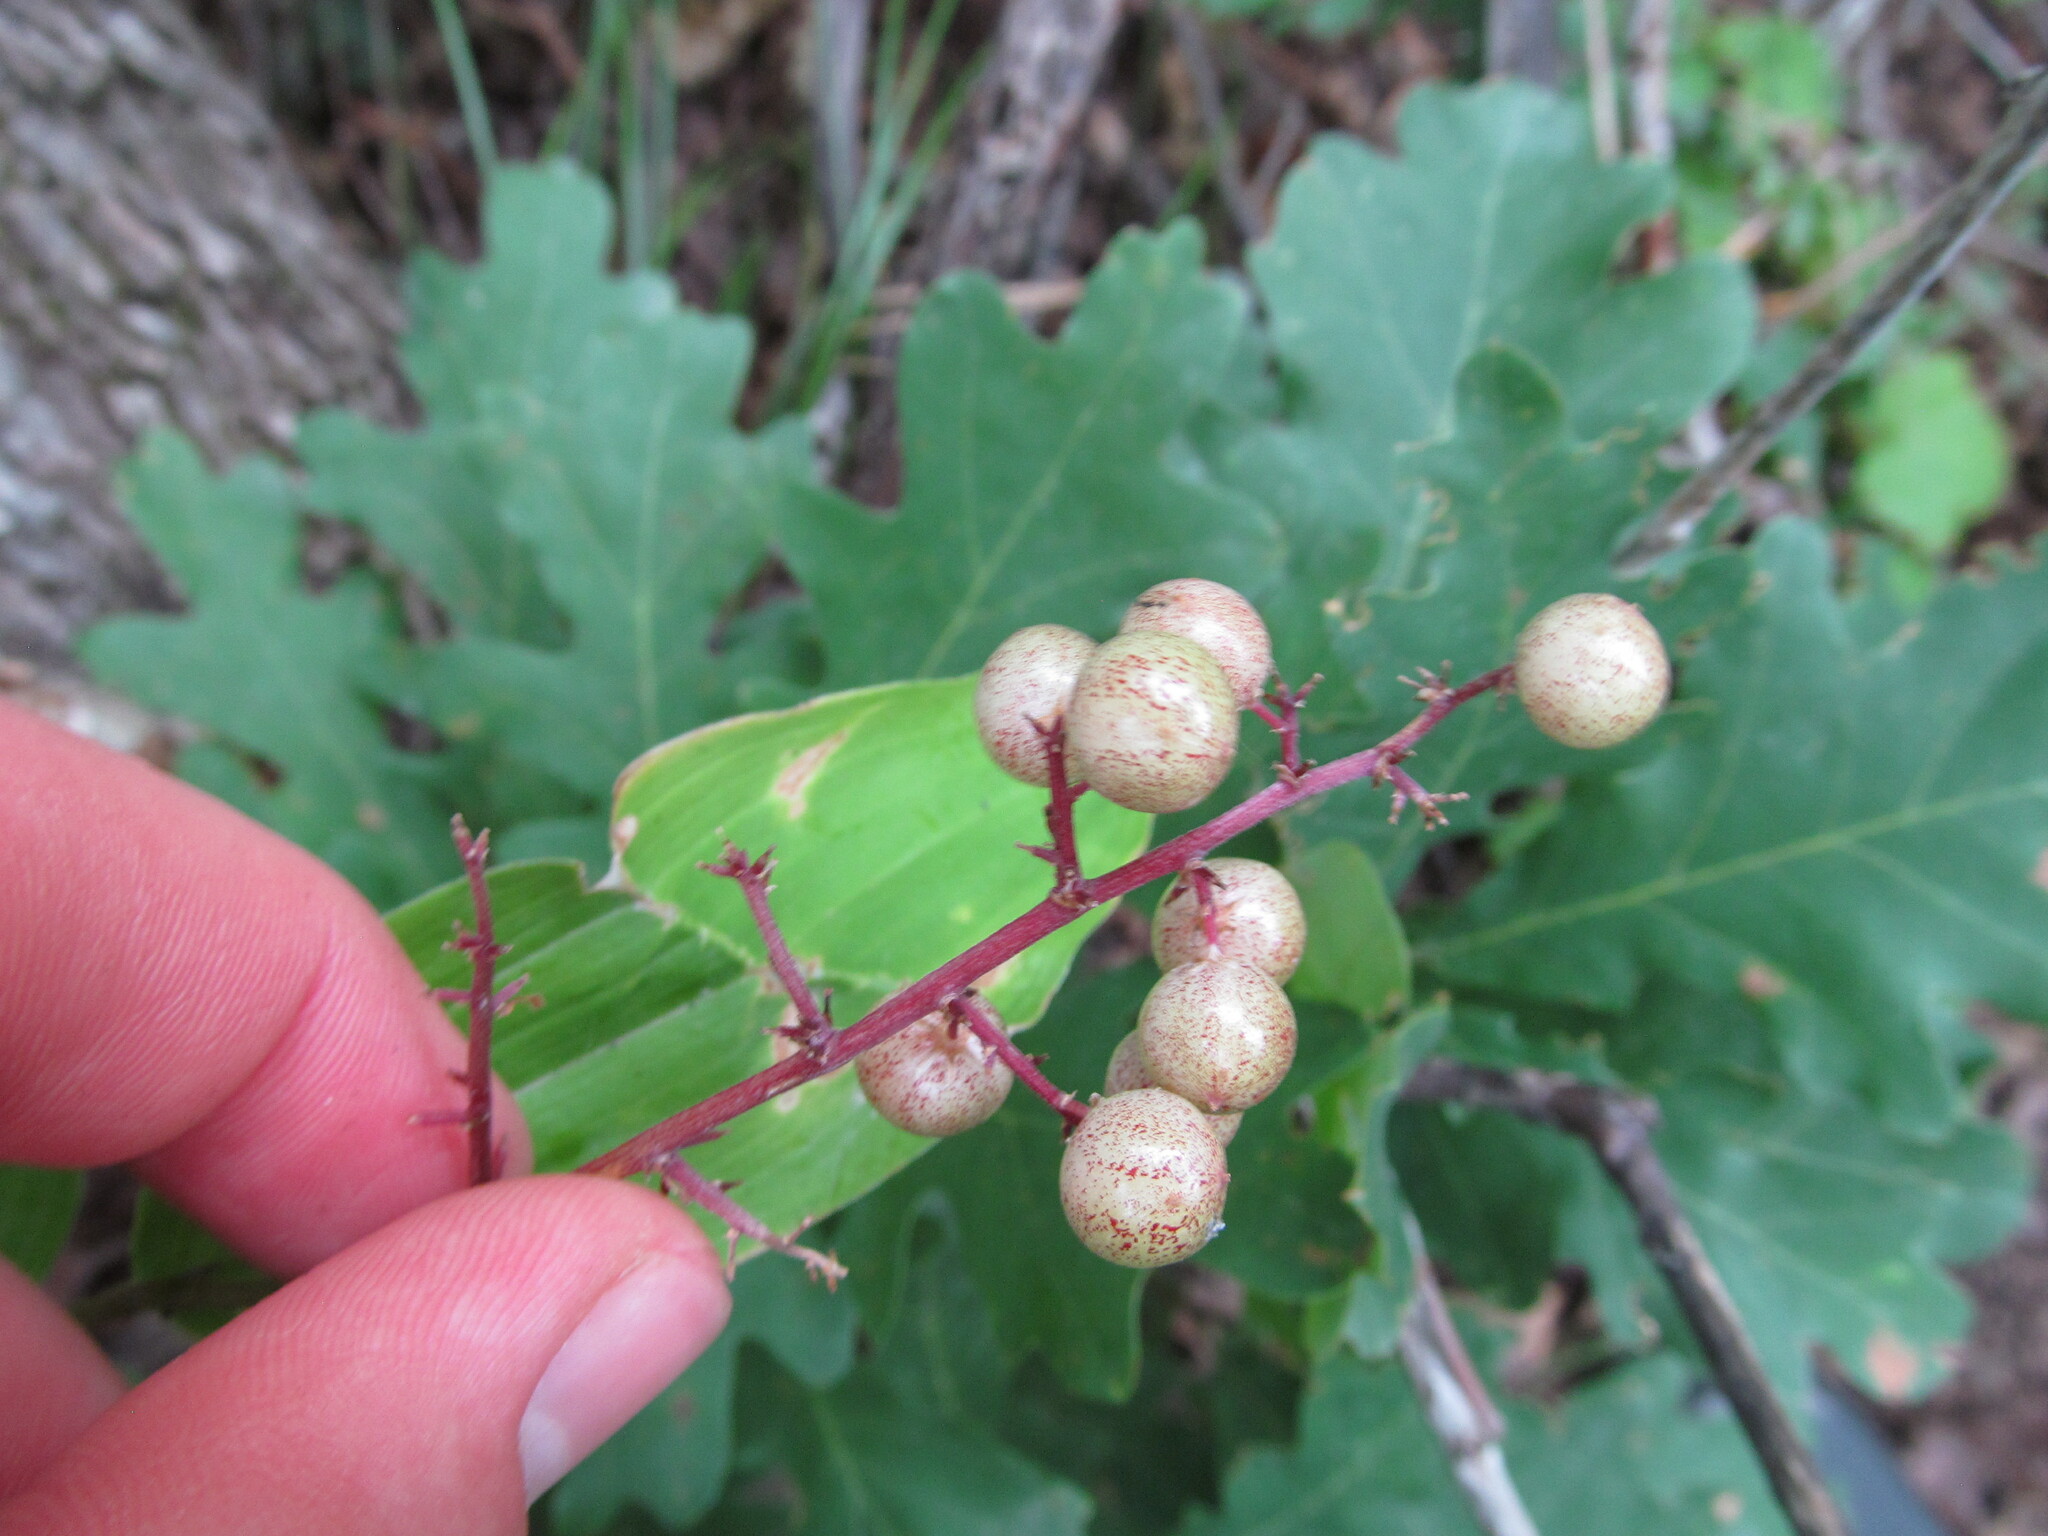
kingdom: Plantae
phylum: Tracheophyta
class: Liliopsida
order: Asparagales
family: Asparagaceae
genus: Maianthemum
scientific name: Maianthemum racemosum
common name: False spikenard
